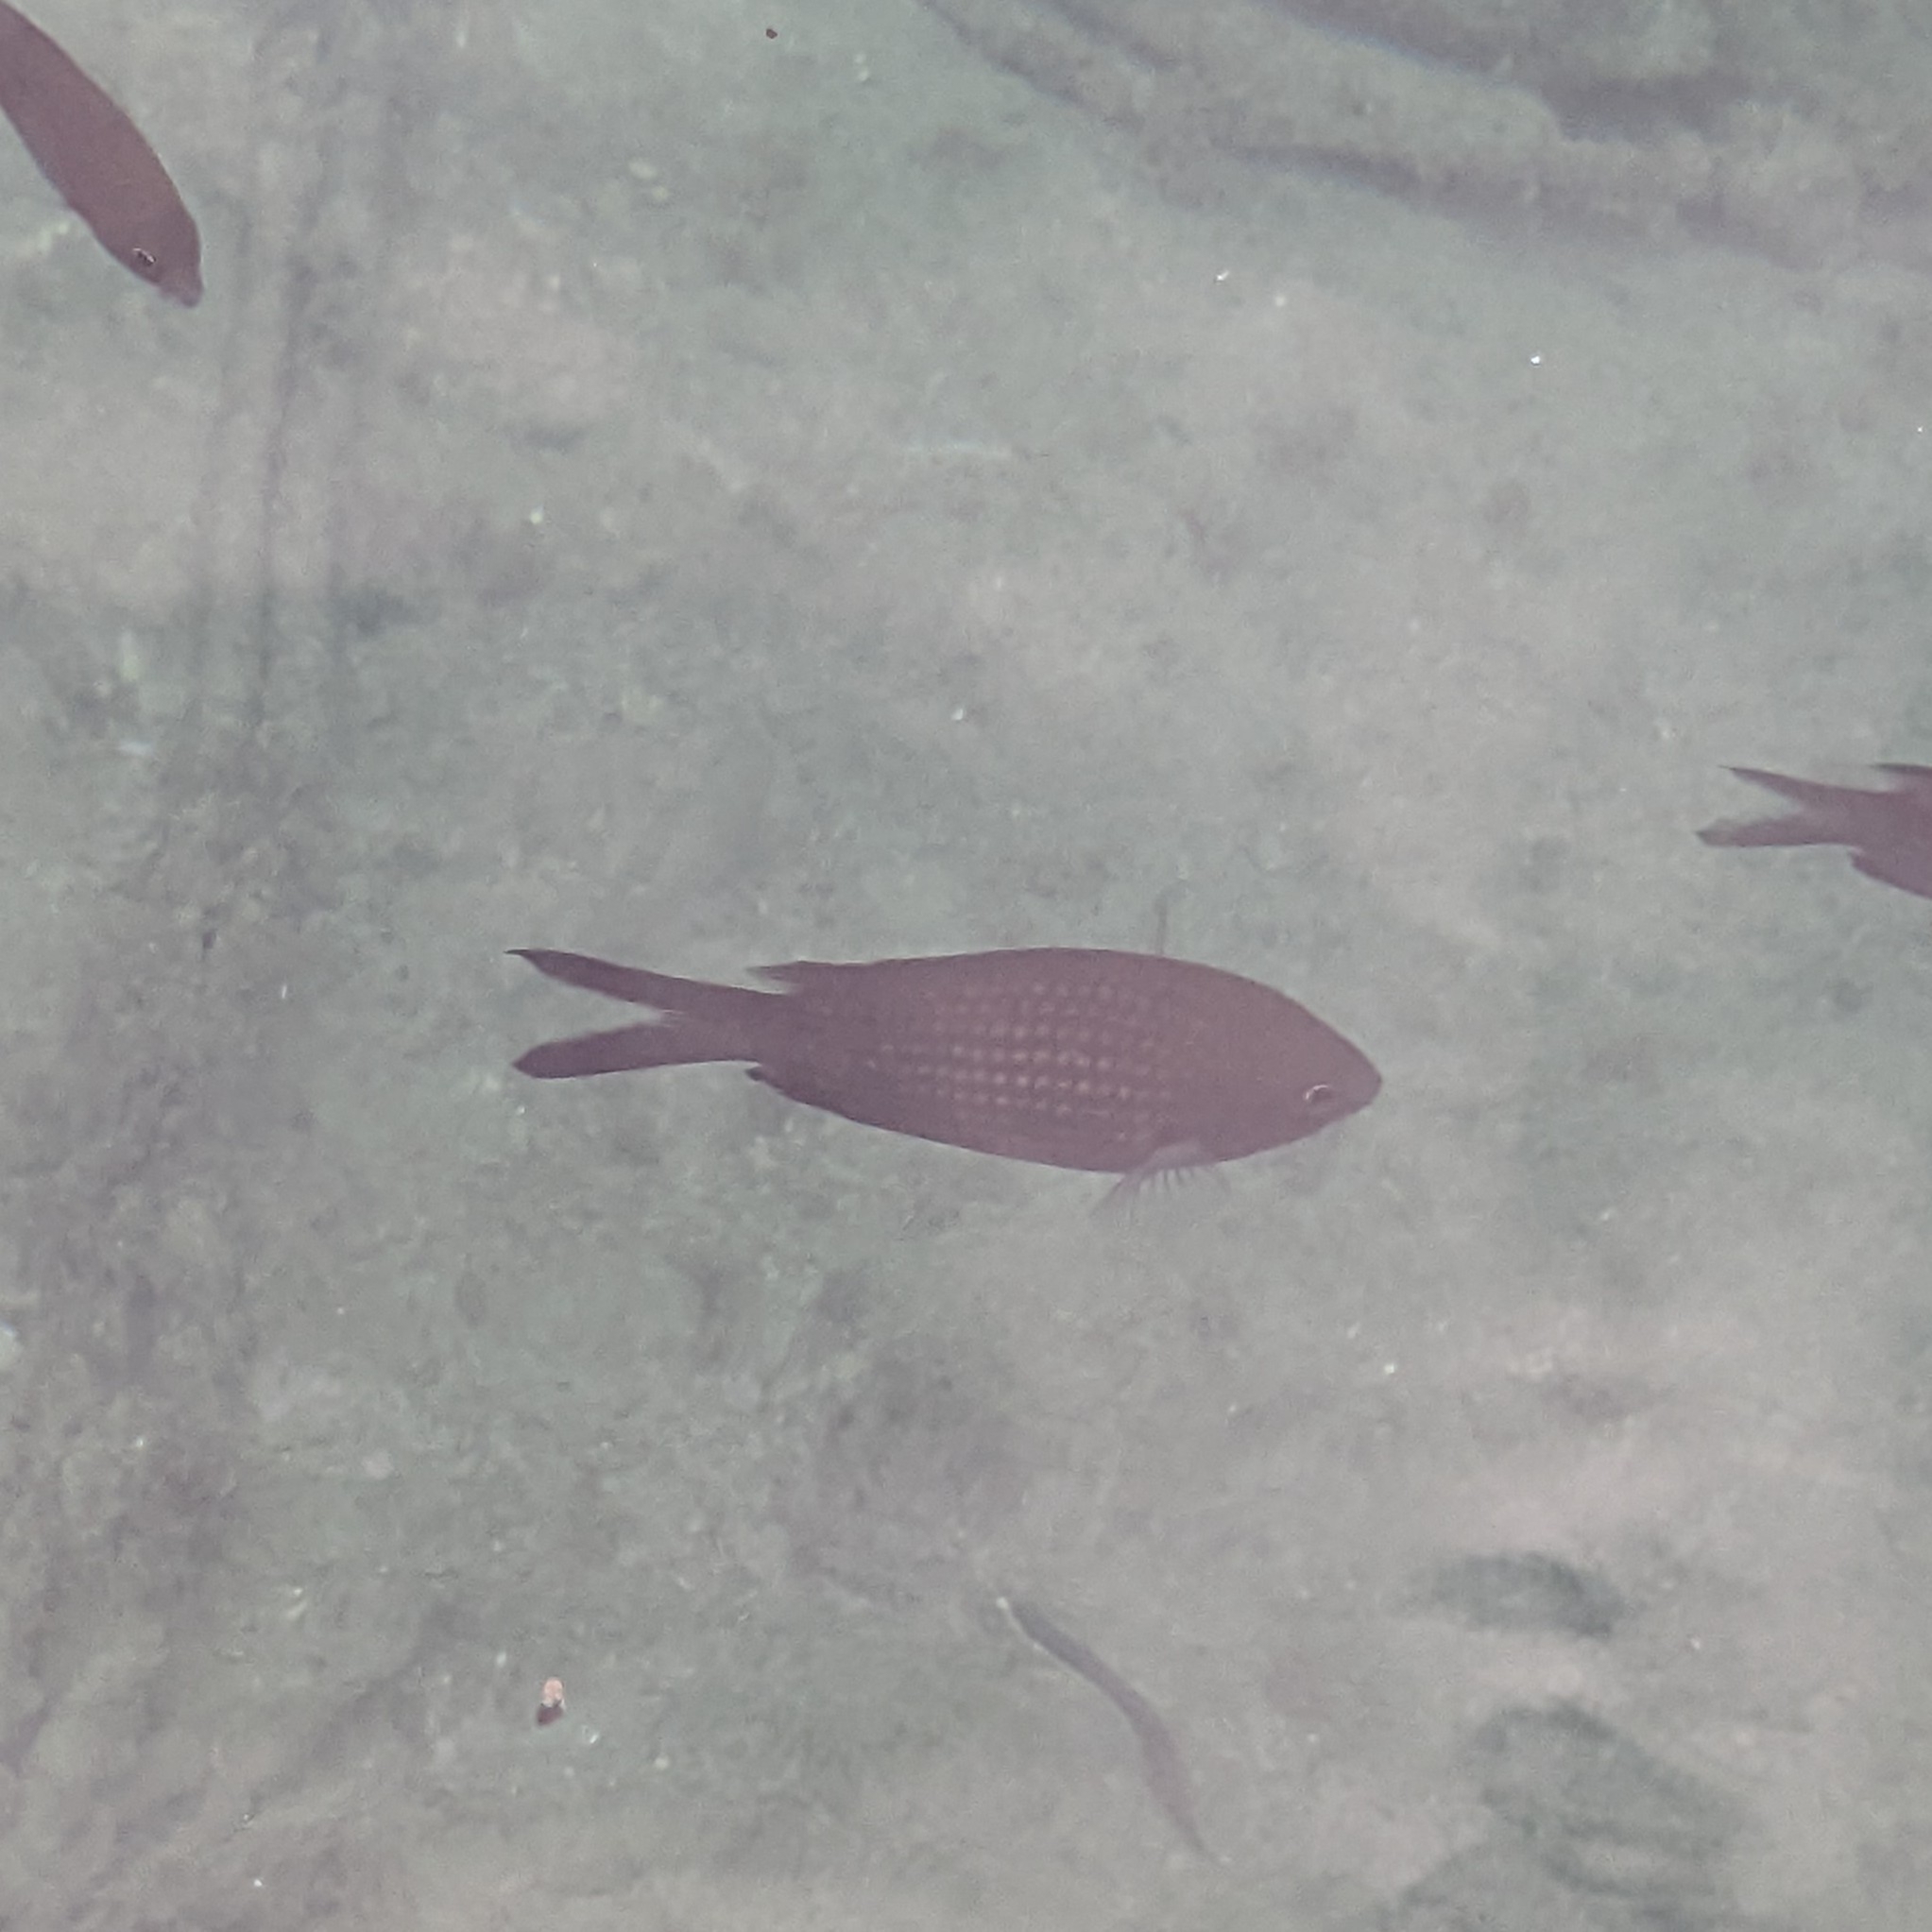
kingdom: Animalia
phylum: Chordata
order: Perciformes
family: Pomacentridae
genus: Chromis
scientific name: Chromis chromis
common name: Damselfish
